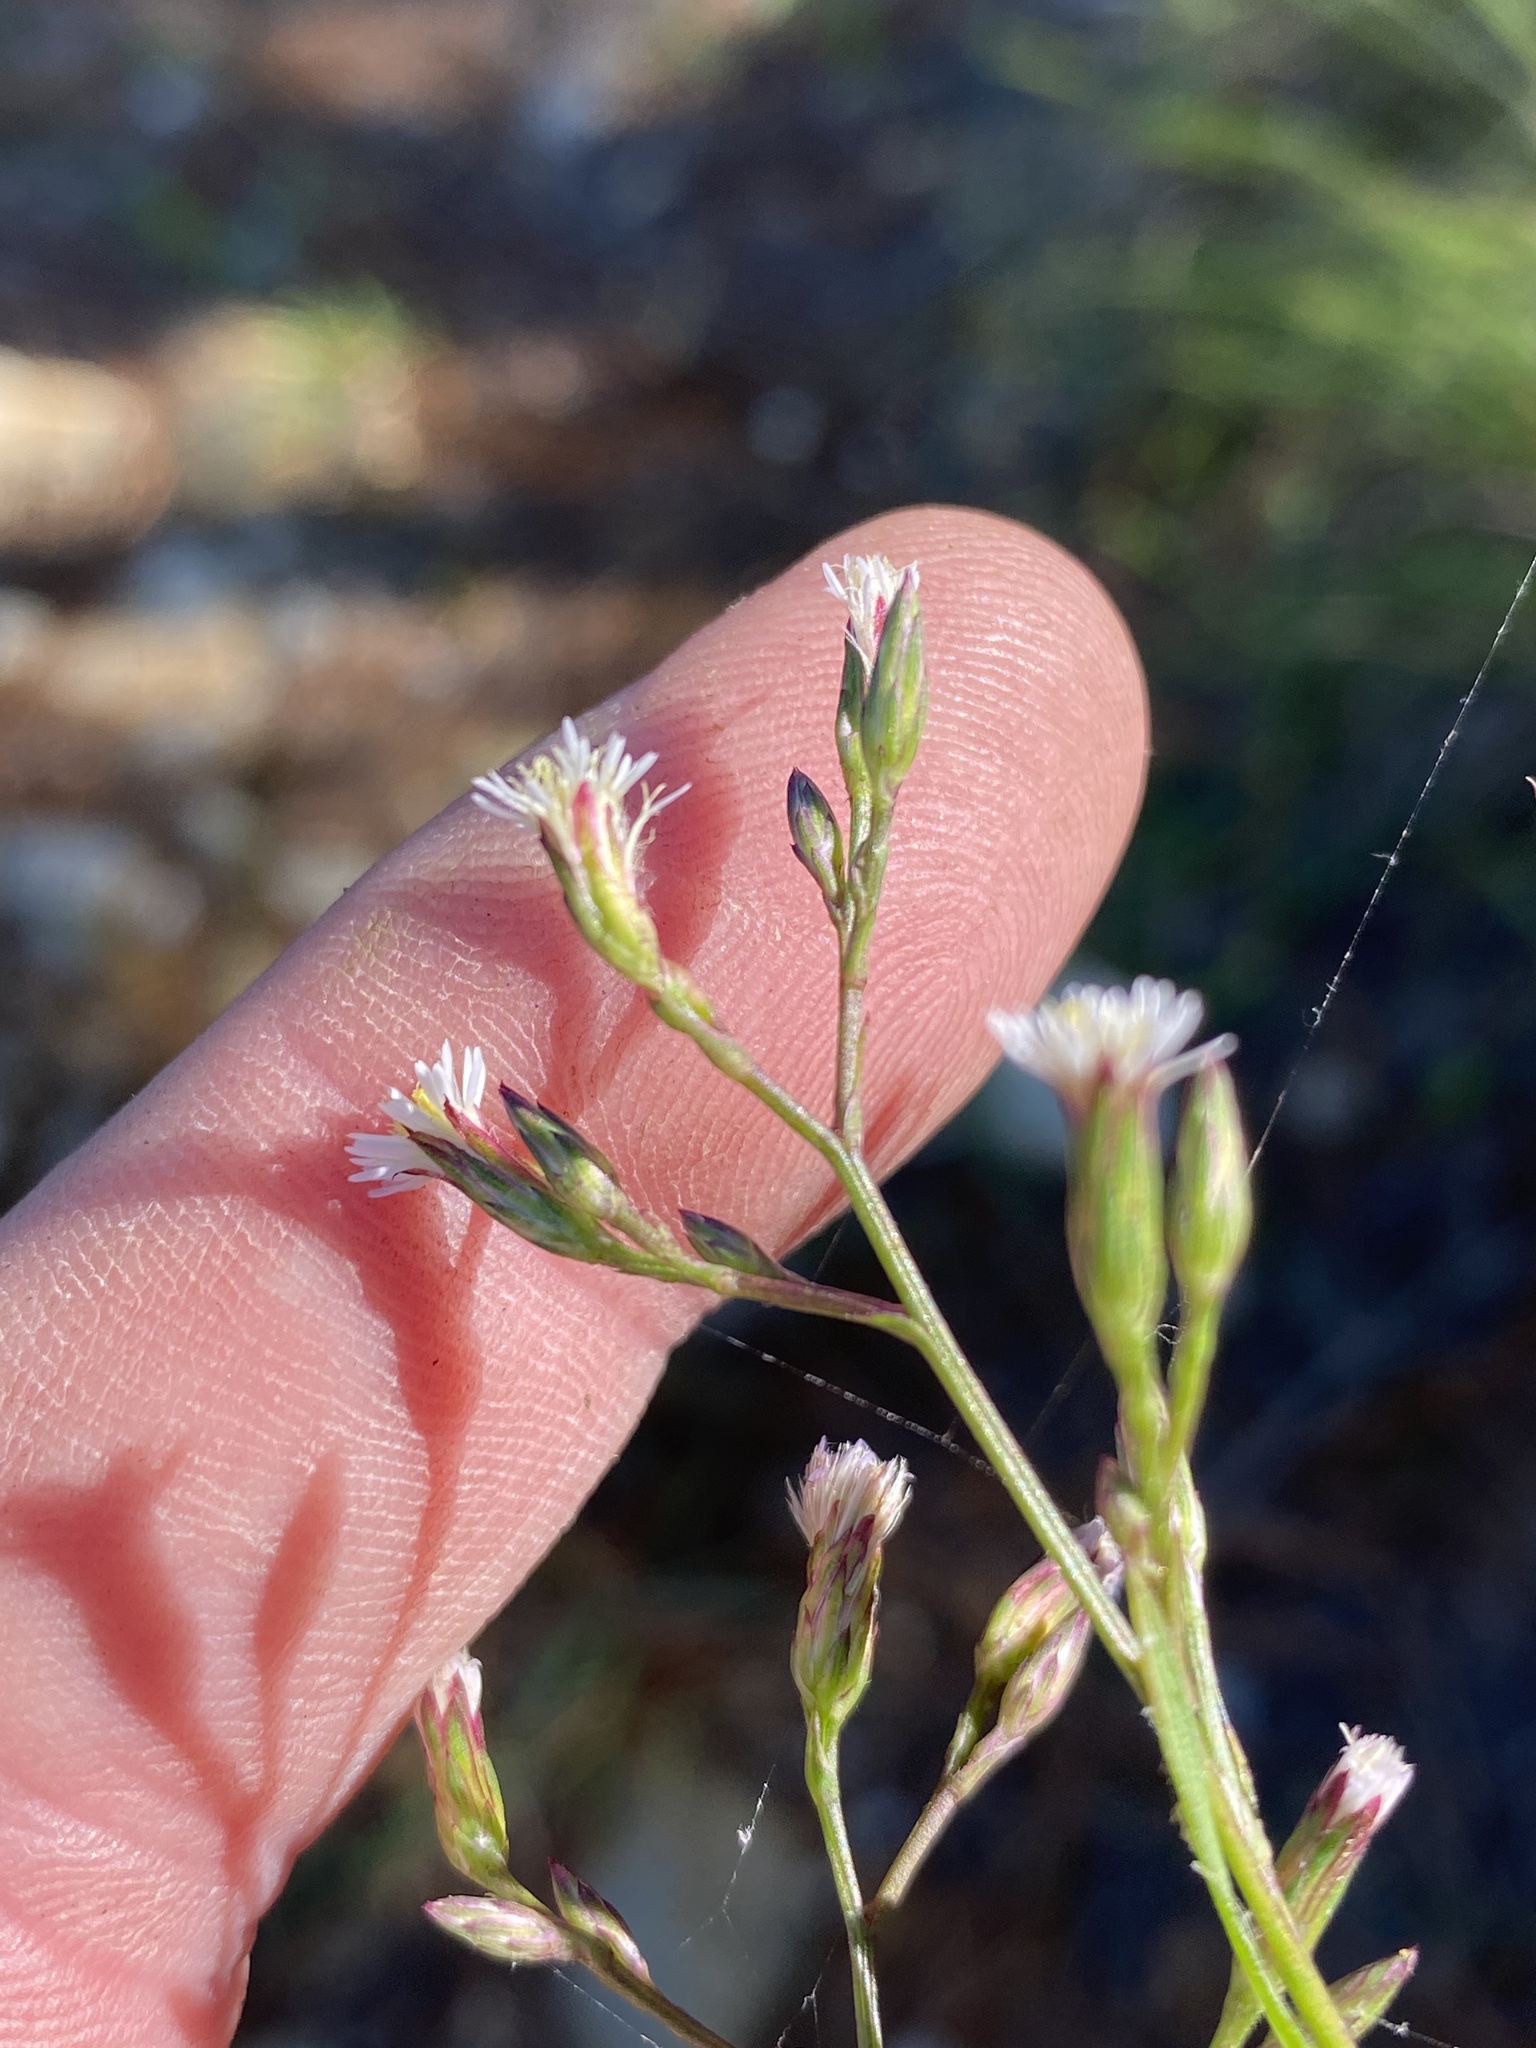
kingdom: Plantae
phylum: Tracheophyta
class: Magnoliopsida
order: Asterales
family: Asteraceae
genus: Symphyotrichum
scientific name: Symphyotrichum squamatum
